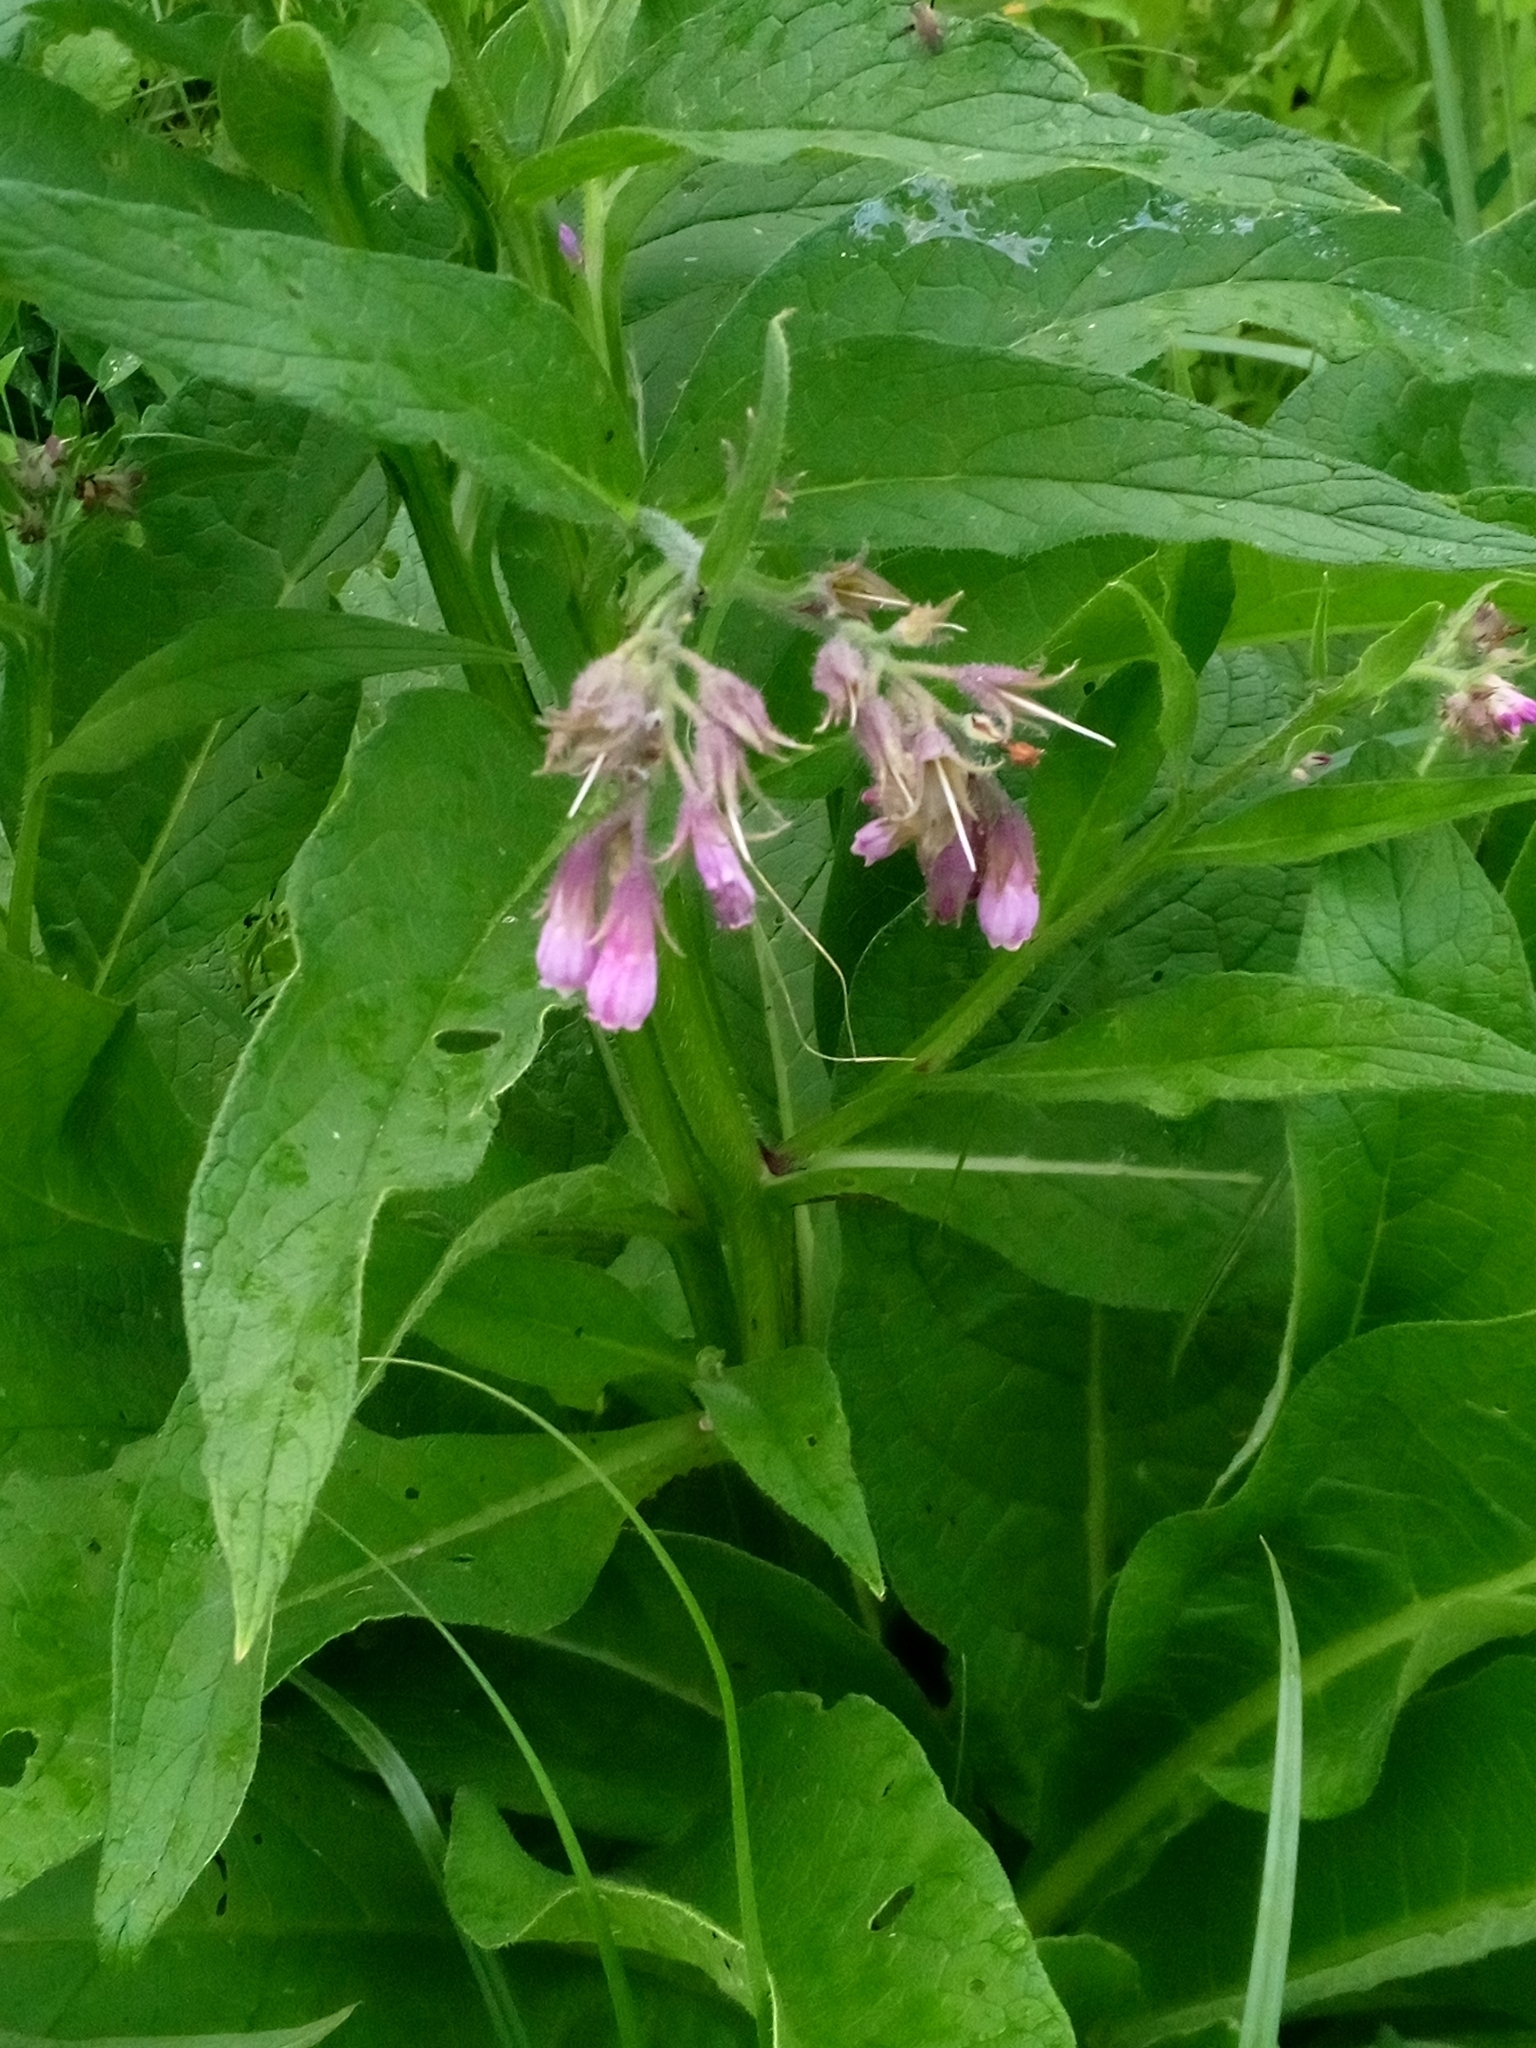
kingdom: Plantae
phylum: Tracheophyta
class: Magnoliopsida
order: Boraginales
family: Boraginaceae
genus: Symphytum
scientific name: Symphytum officinale
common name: Common comfrey
